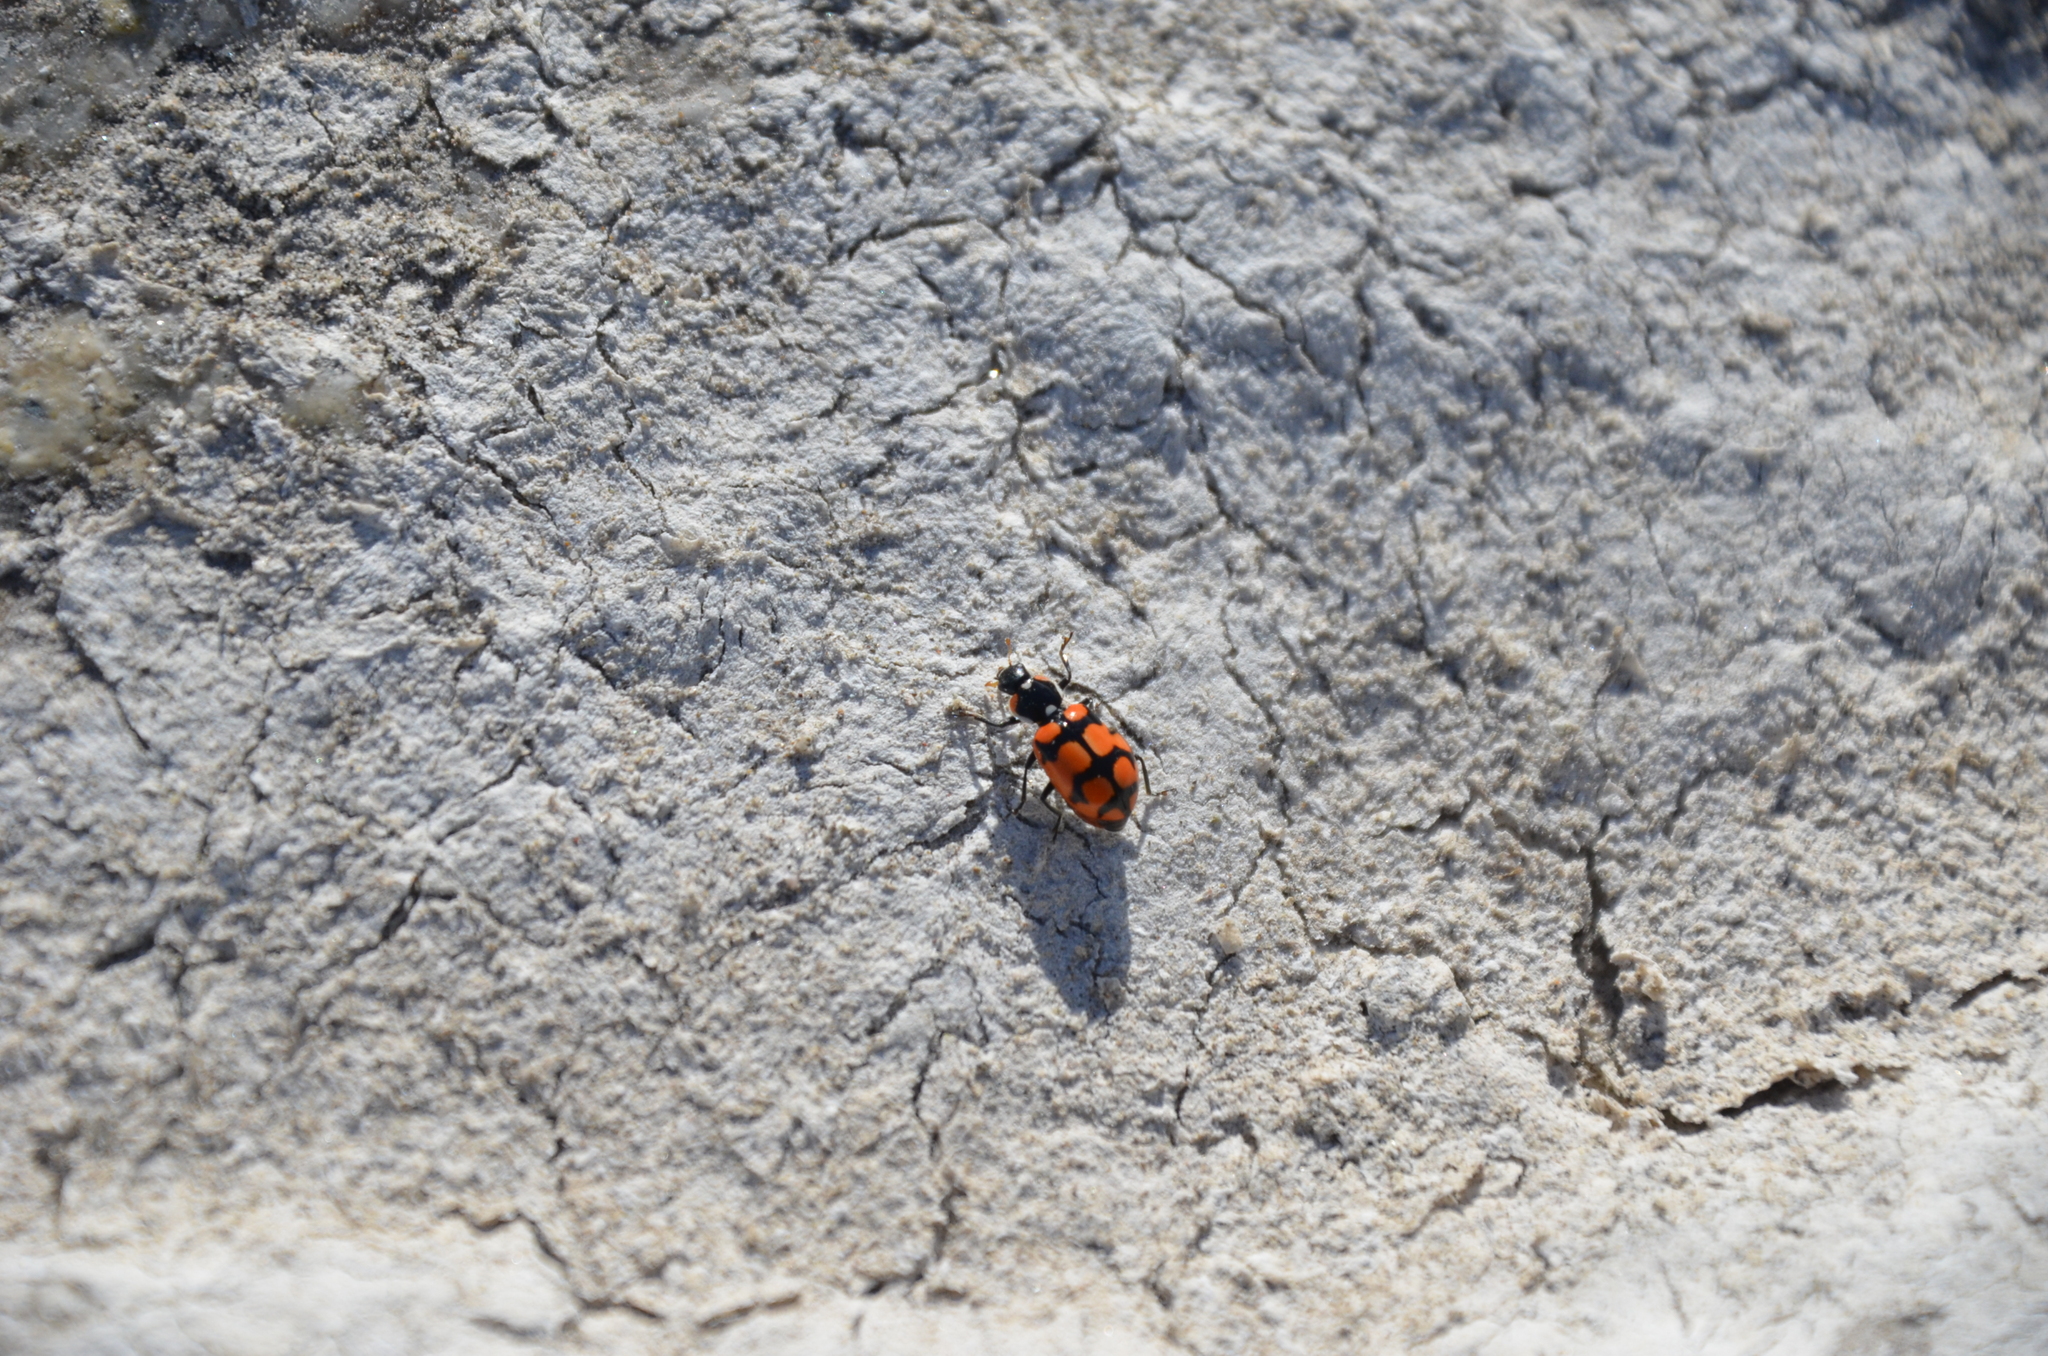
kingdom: Animalia
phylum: Arthropoda
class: Insecta
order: Coleoptera
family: Coccinellidae
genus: Eriopis
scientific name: Eriopis chilensis
